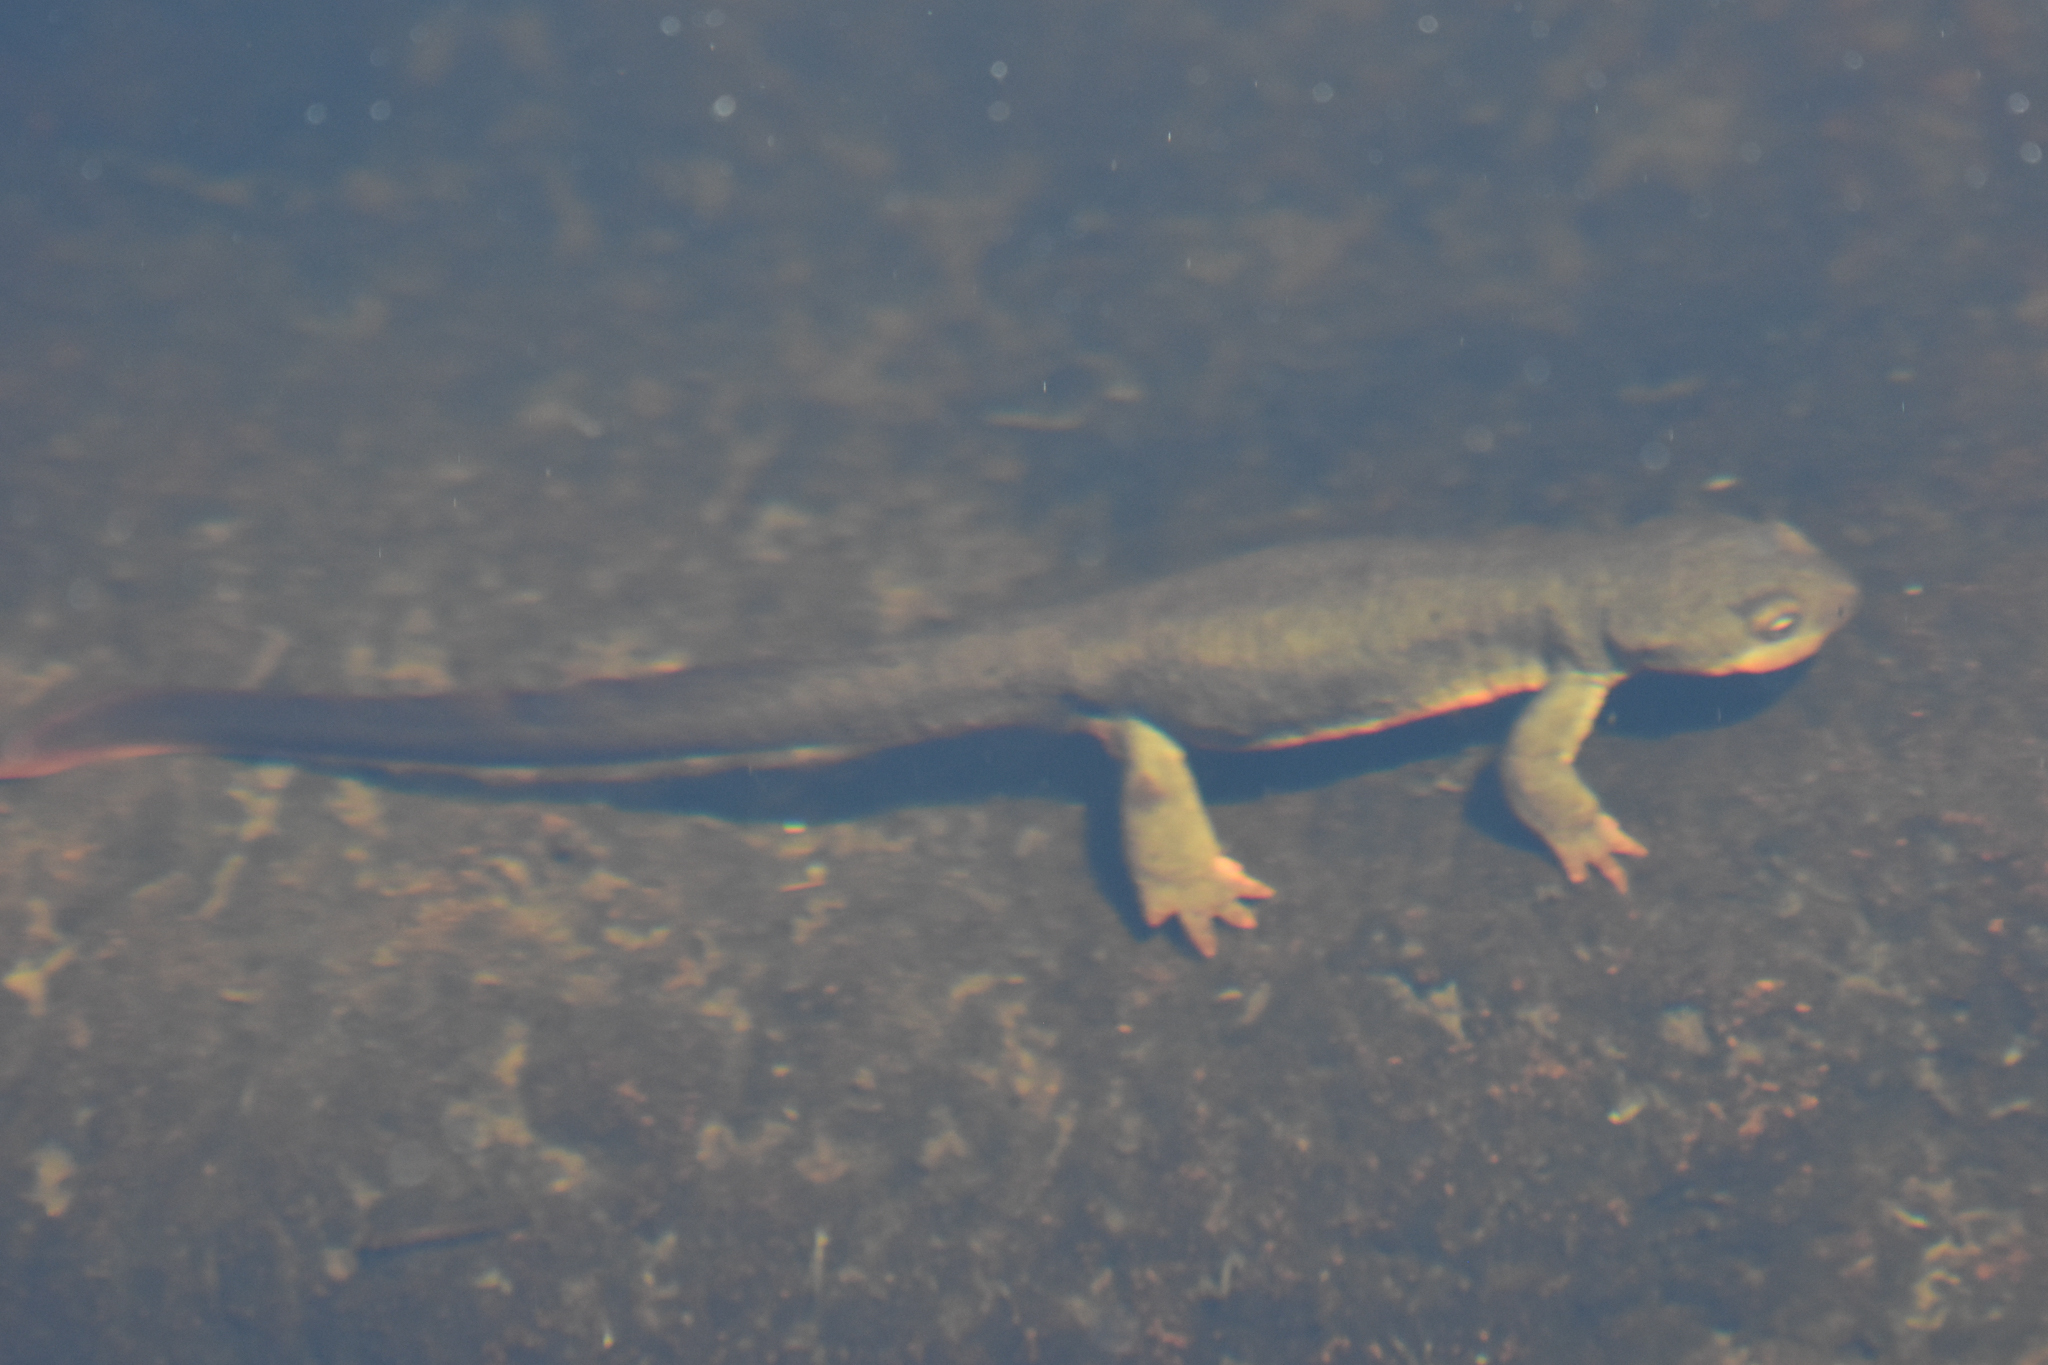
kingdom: Animalia
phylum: Chordata
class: Amphibia
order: Caudata
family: Salamandridae
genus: Taricha
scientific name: Taricha granulosa
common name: Roughskin newt
